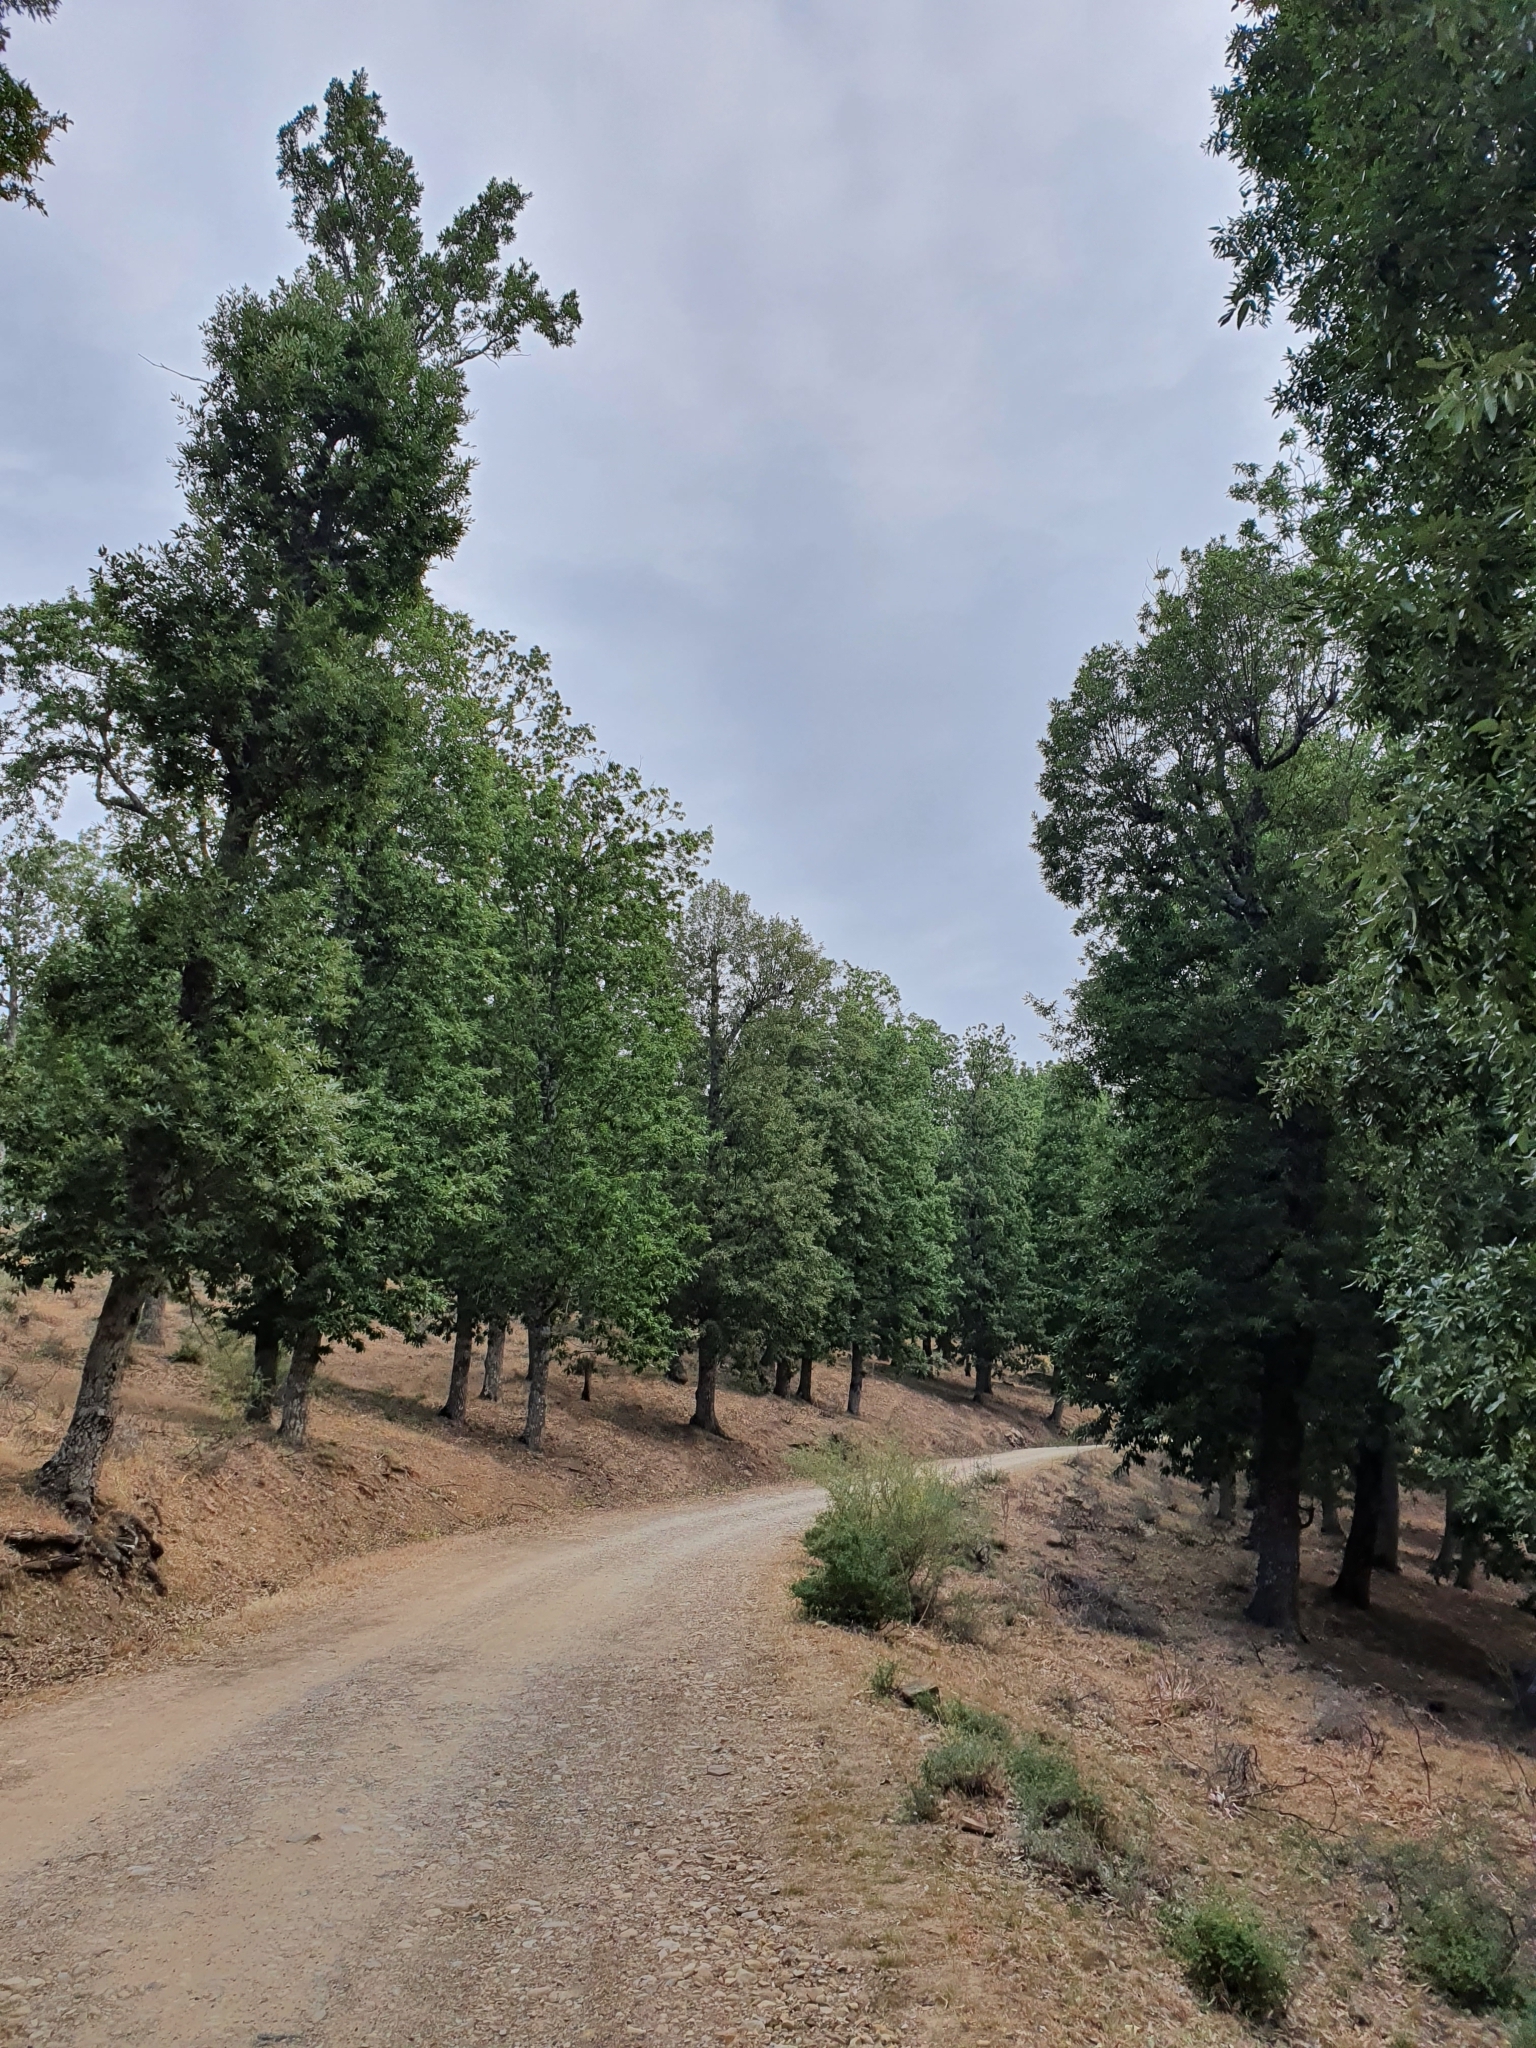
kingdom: Plantae
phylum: Tracheophyta
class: Magnoliopsida
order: Fagales
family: Fagaceae
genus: Quercus
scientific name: Quercus afares
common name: African oak
